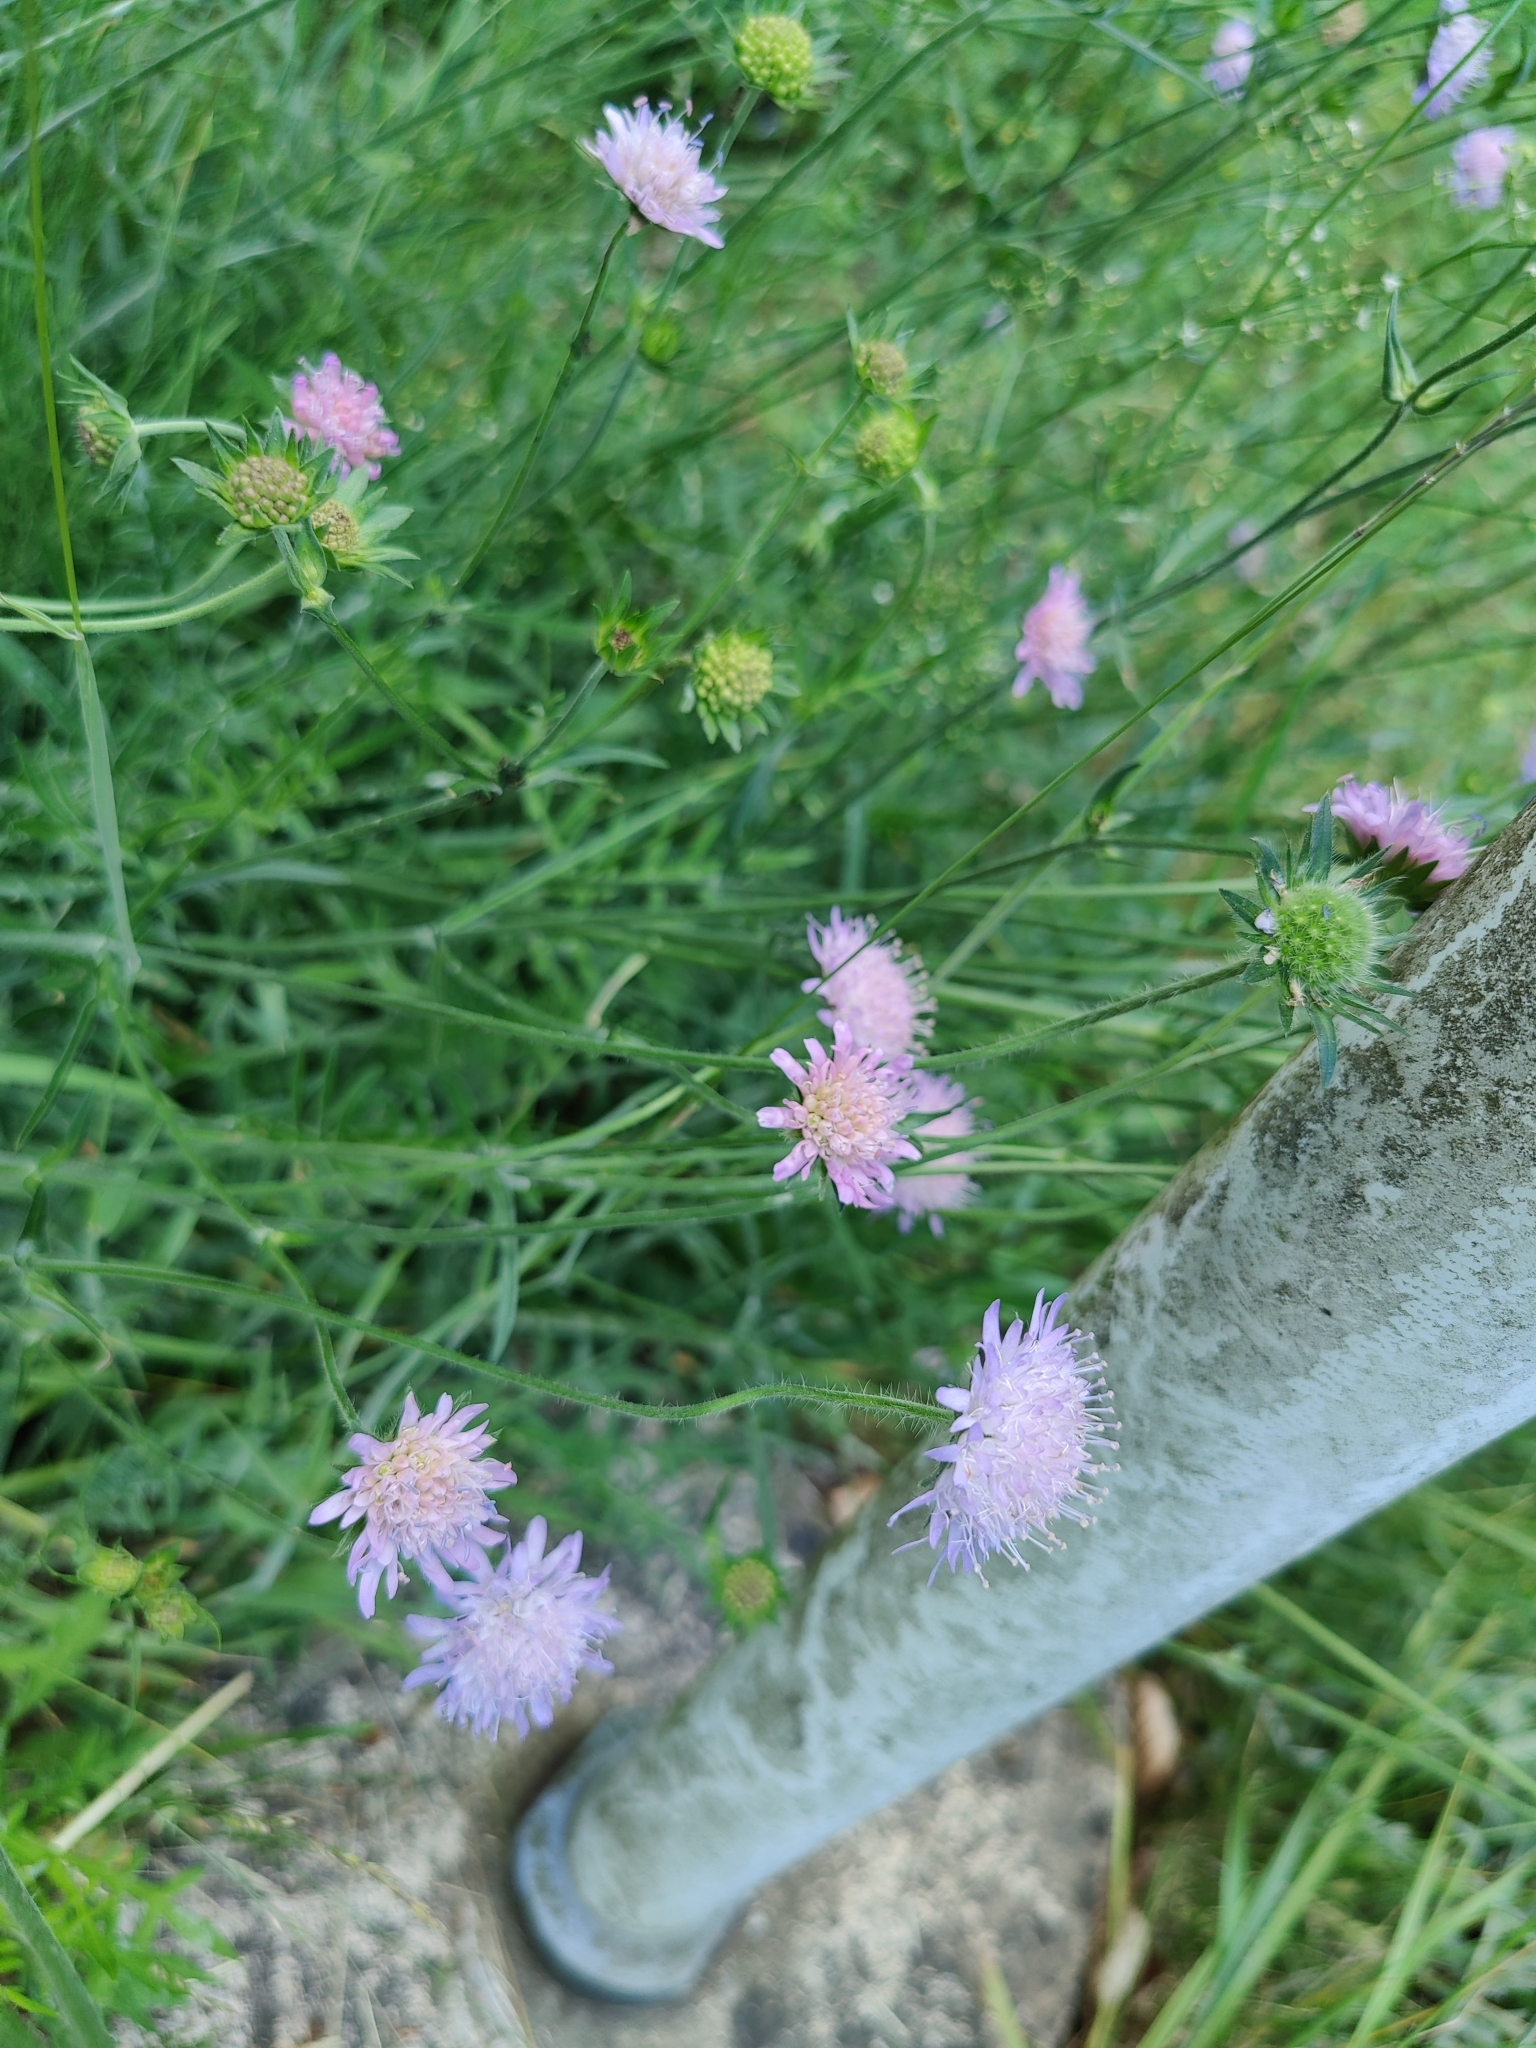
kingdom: Plantae
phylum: Tracheophyta
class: Magnoliopsida
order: Dipsacales
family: Caprifoliaceae
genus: Knautia
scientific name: Knautia arvensis
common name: Field scabiosa
